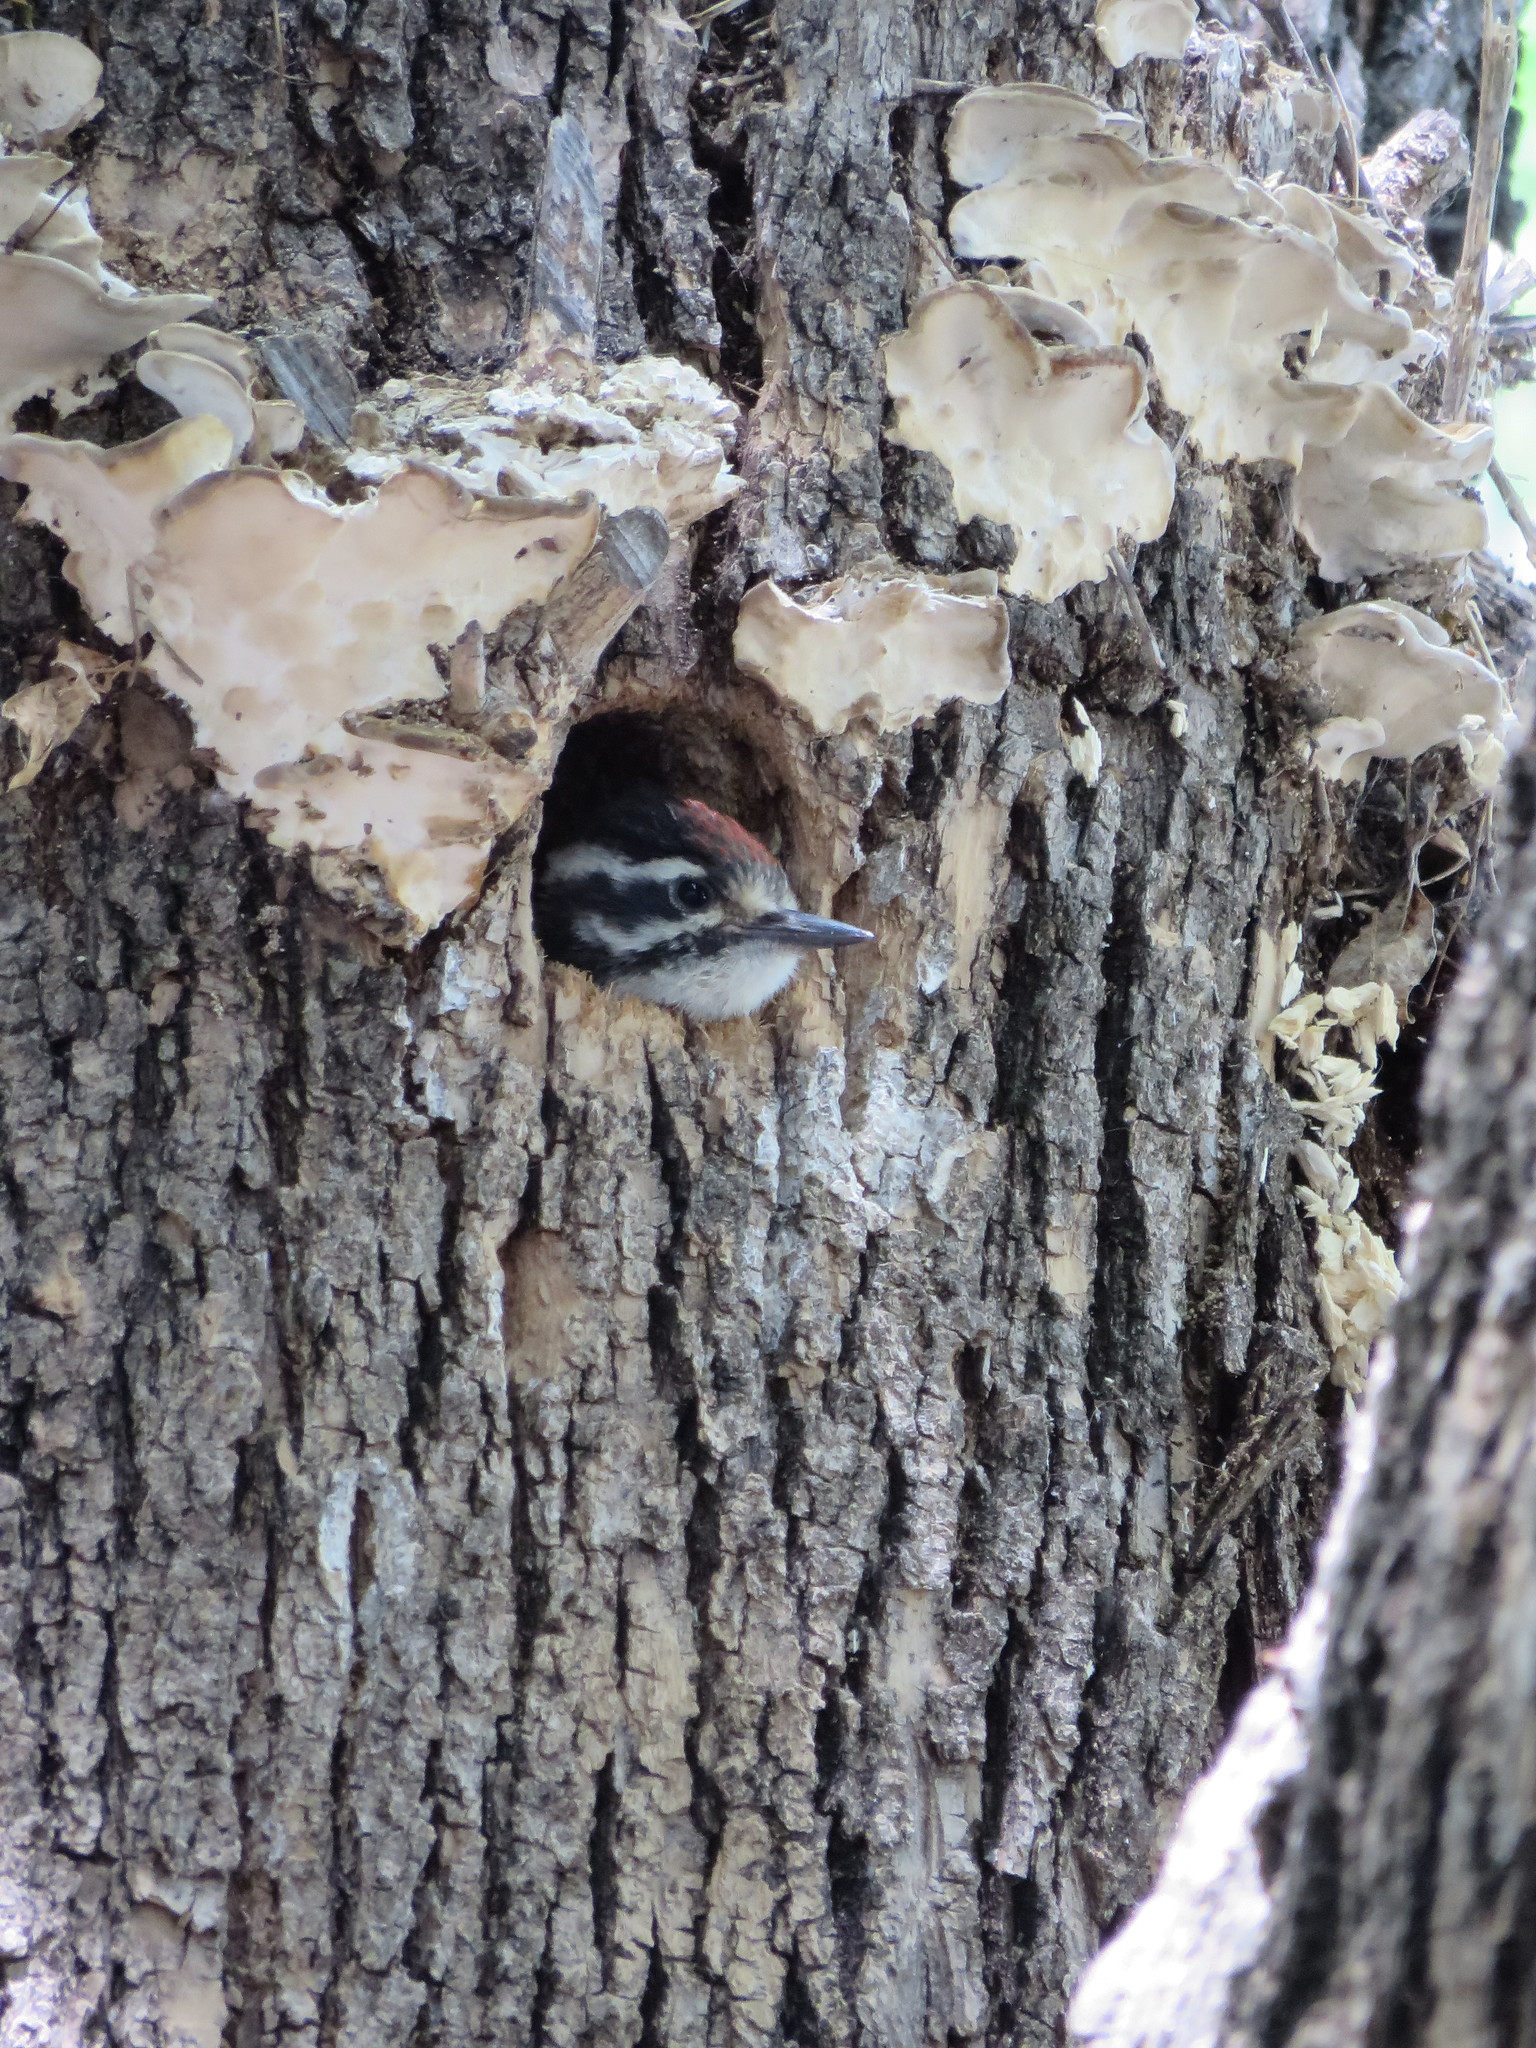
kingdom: Animalia
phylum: Chordata
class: Aves
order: Piciformes
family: Picidae
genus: Dryobates
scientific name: Dryobates nuttallii
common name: Nuttall's woodpecker
